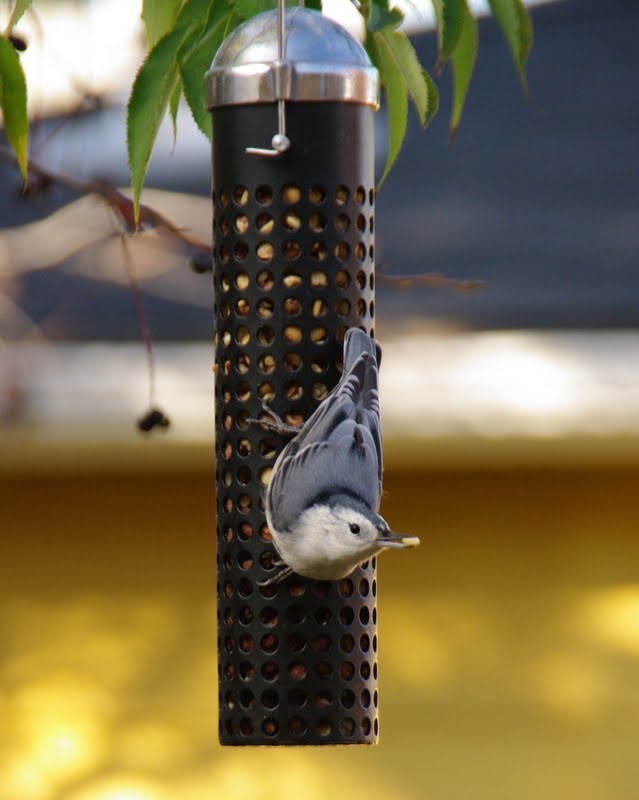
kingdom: Animalia
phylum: Chordata
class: Aves
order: Passeriformes
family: Sittidae
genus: Sitta
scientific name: Sitta carolinensis
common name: White-breasted nuthatch
